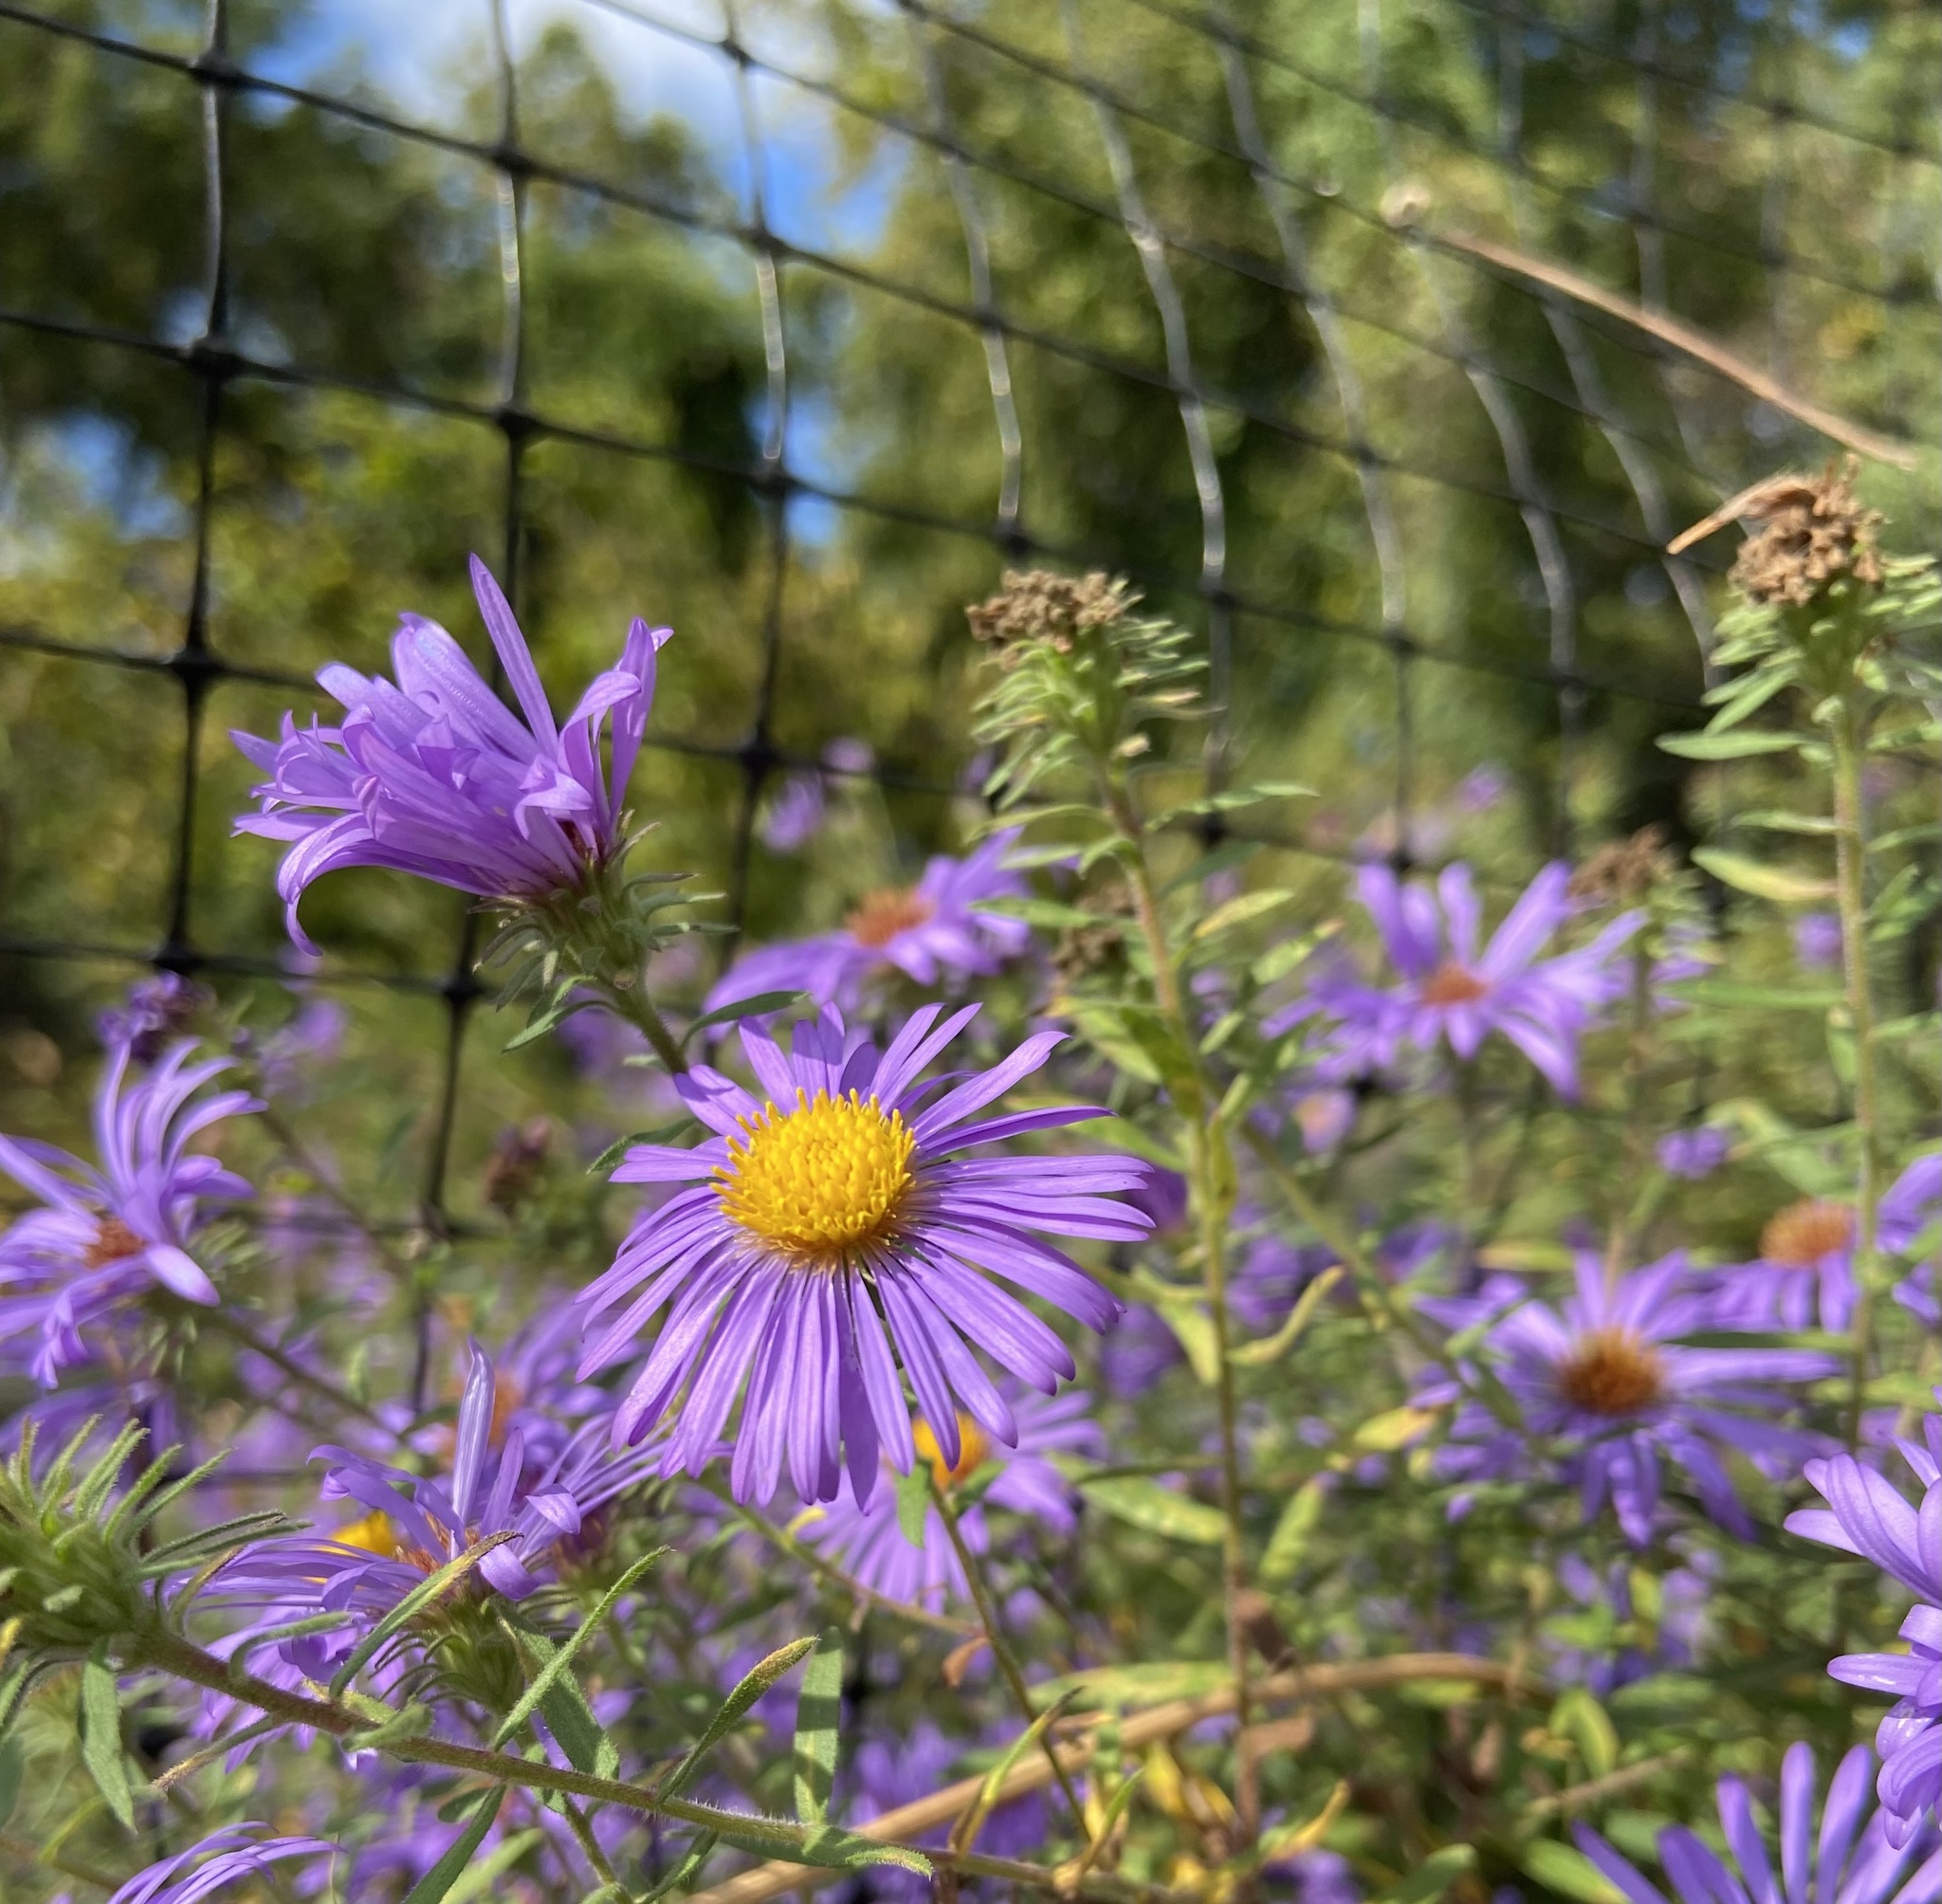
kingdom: Plantae
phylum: Tracheophyta
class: Magnoliopsida
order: Asterales
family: Asteraceae
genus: Symphyotrichum
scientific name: Symphyotrichum novae-angliae
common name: Michaelmas daisy
